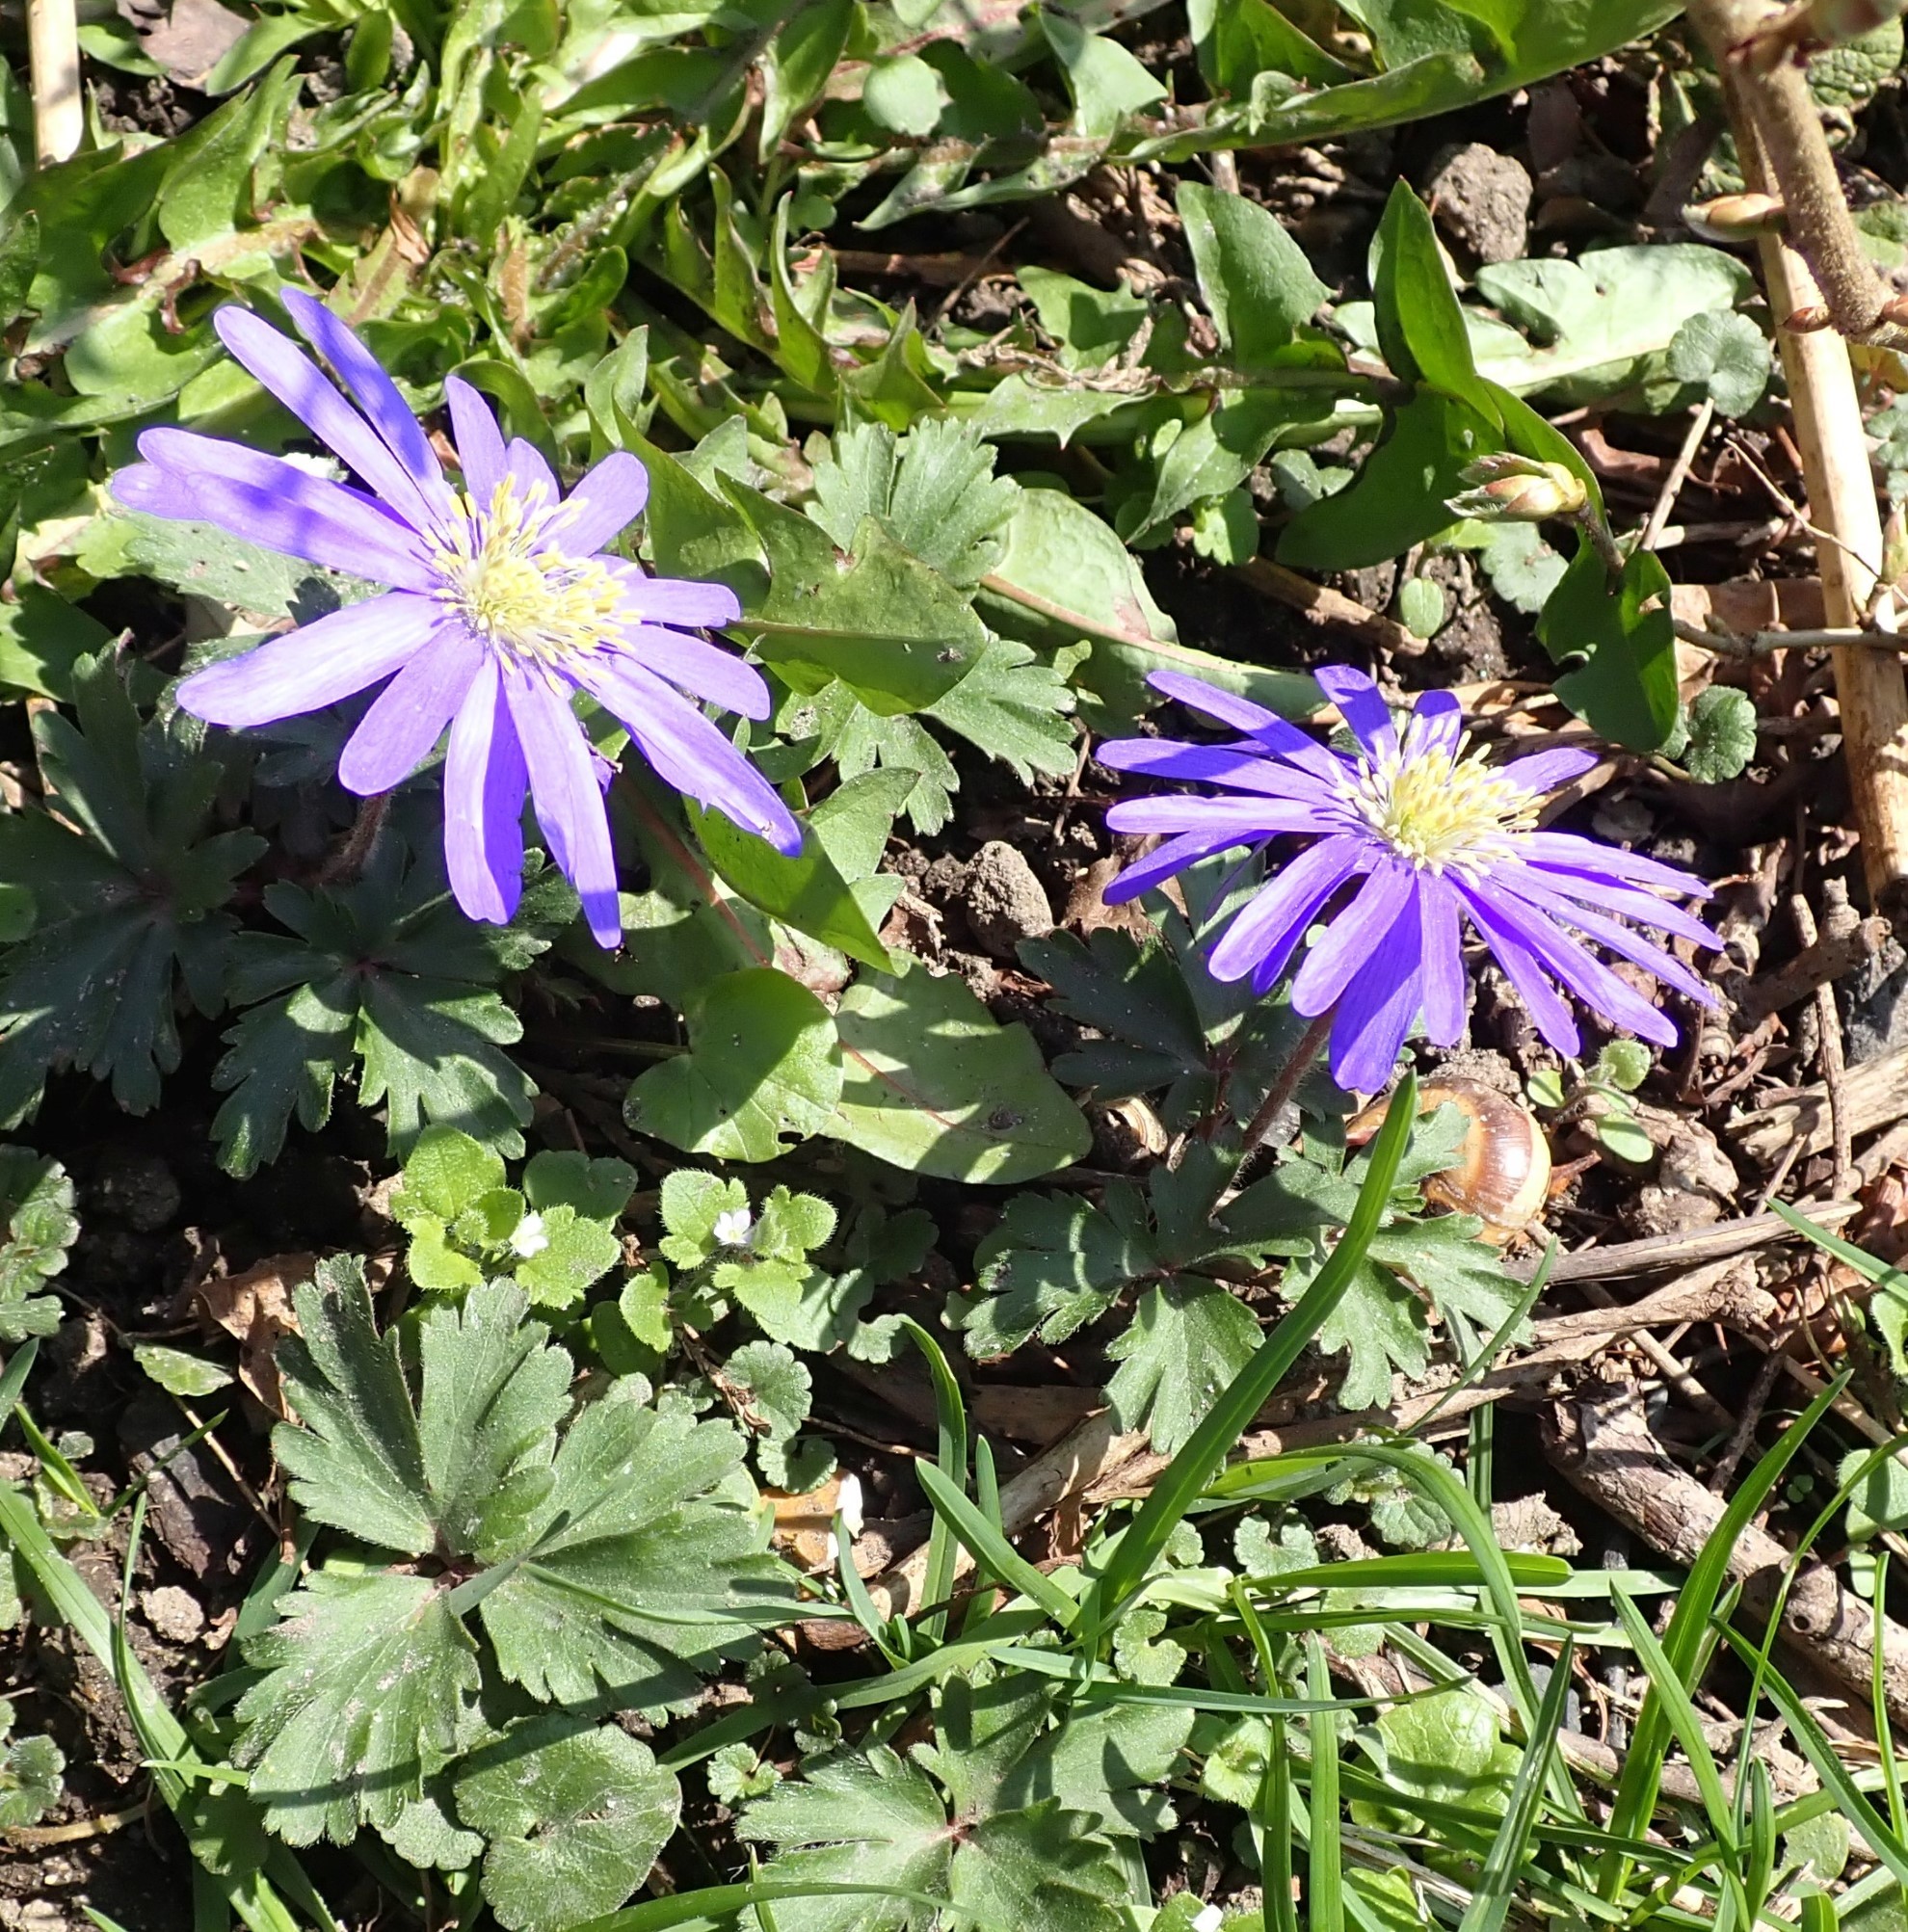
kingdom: Plantae
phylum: Tracheophyta
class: Magnoliopsida
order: Ranunculales
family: Ranunculaceae
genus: Anemone
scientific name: Anemone blanda
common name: Balkan anemone
